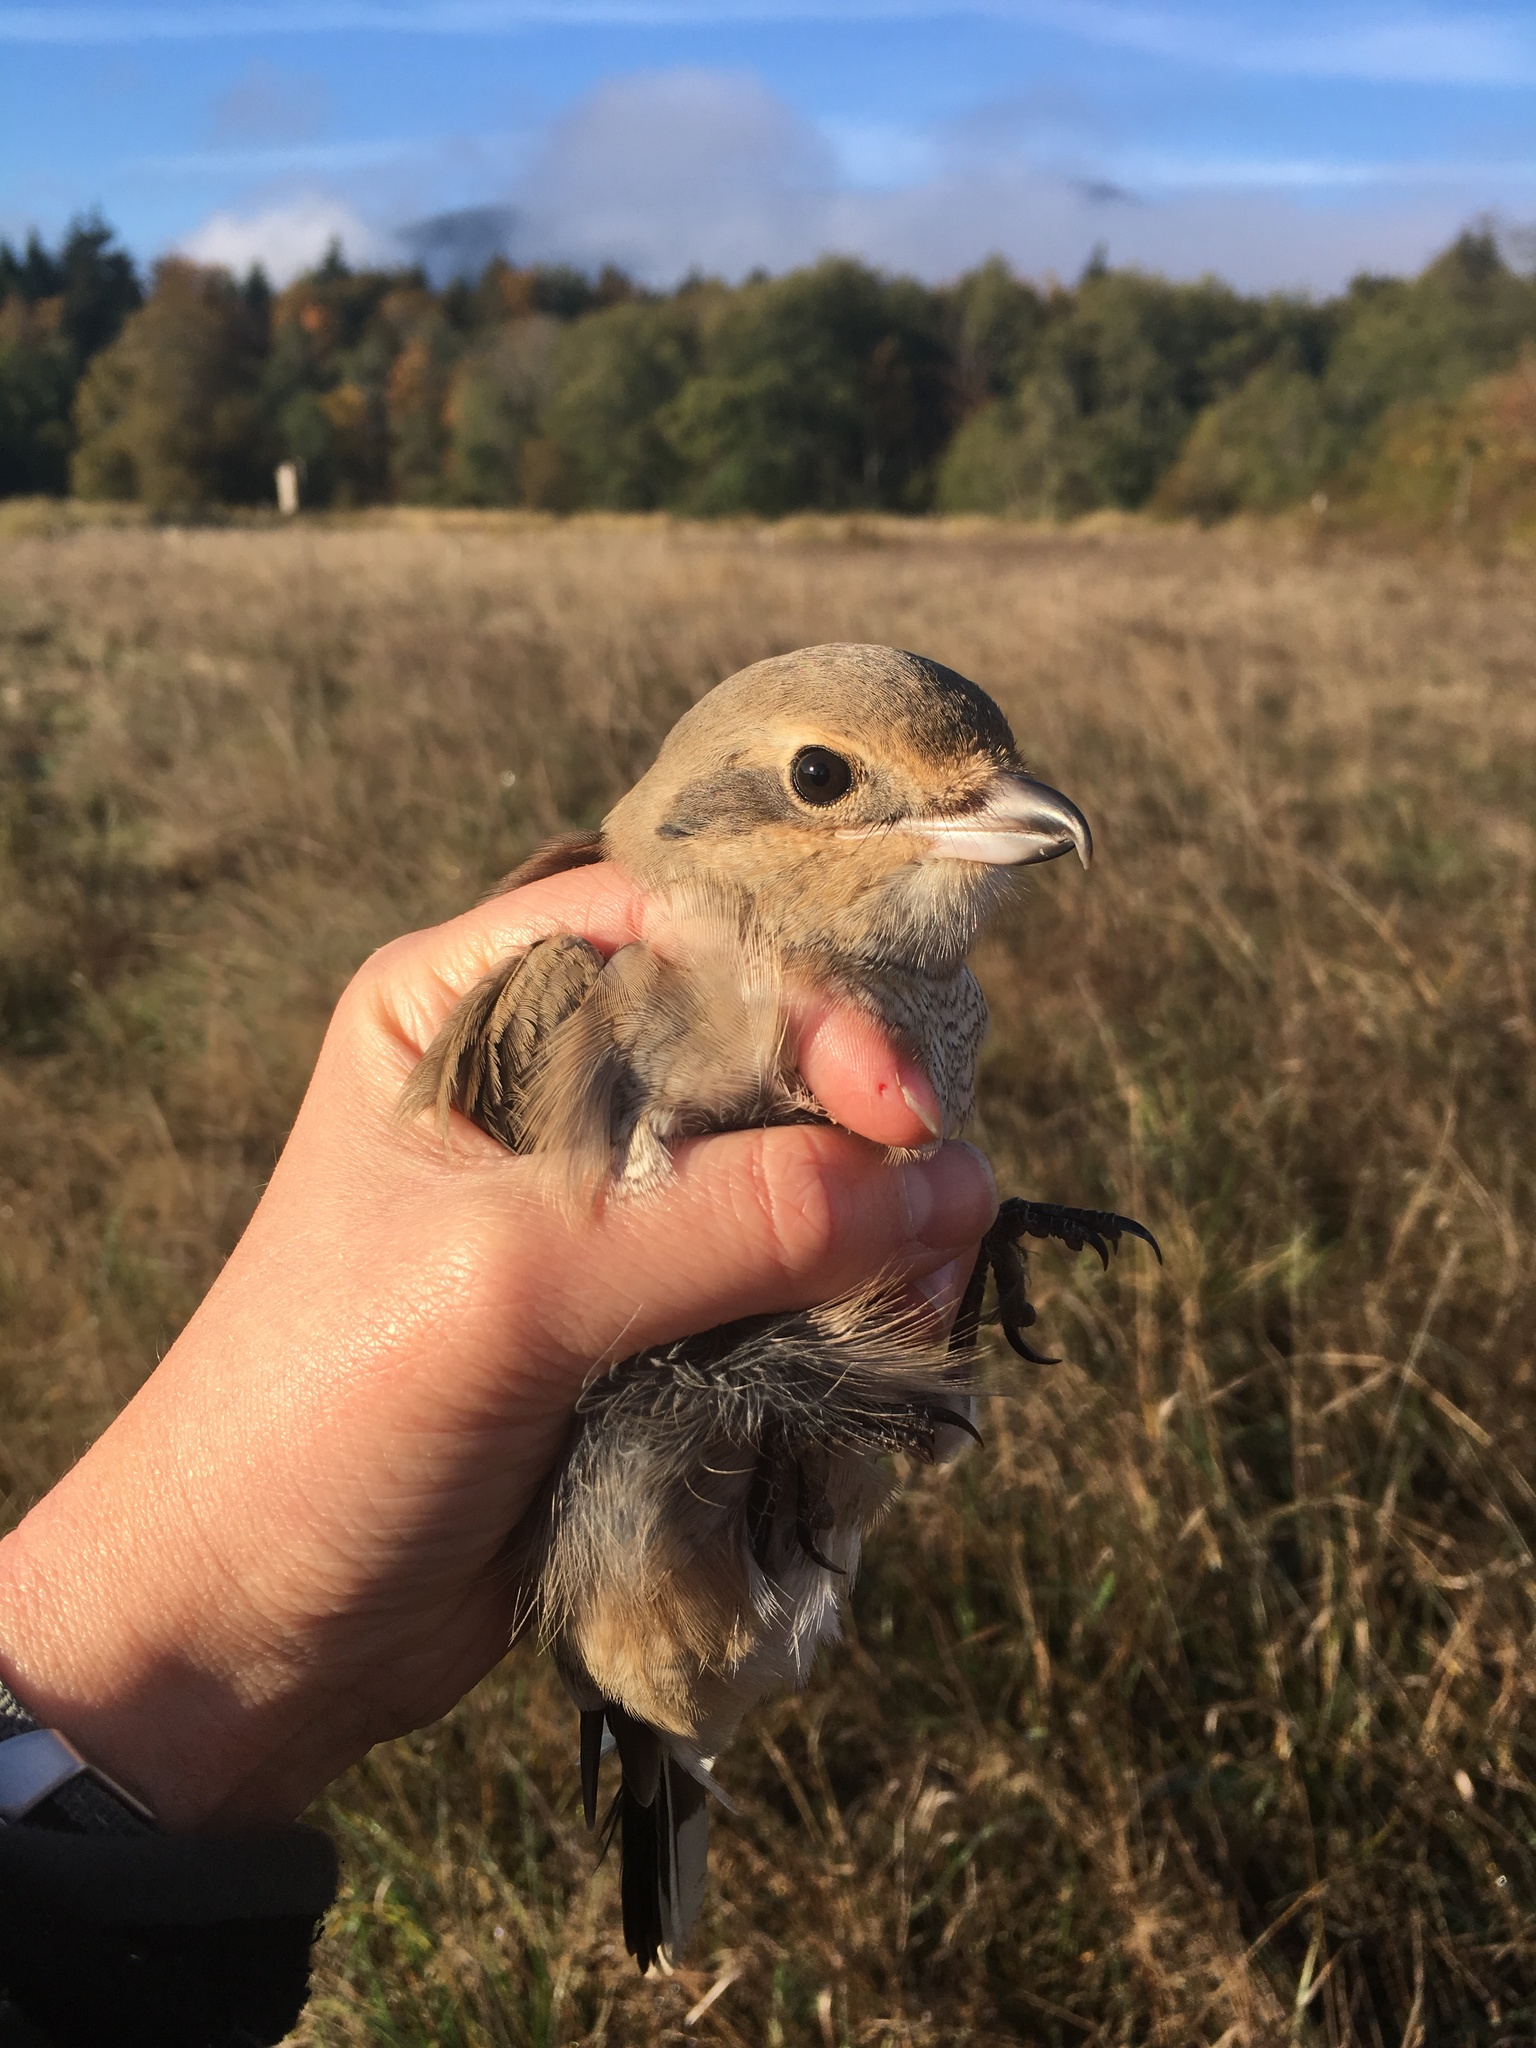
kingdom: Animalia
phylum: Chordata
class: Aves
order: Passeriformes
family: Laniidae
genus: Lanius
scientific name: Lanius borealis
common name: Northern shrike
